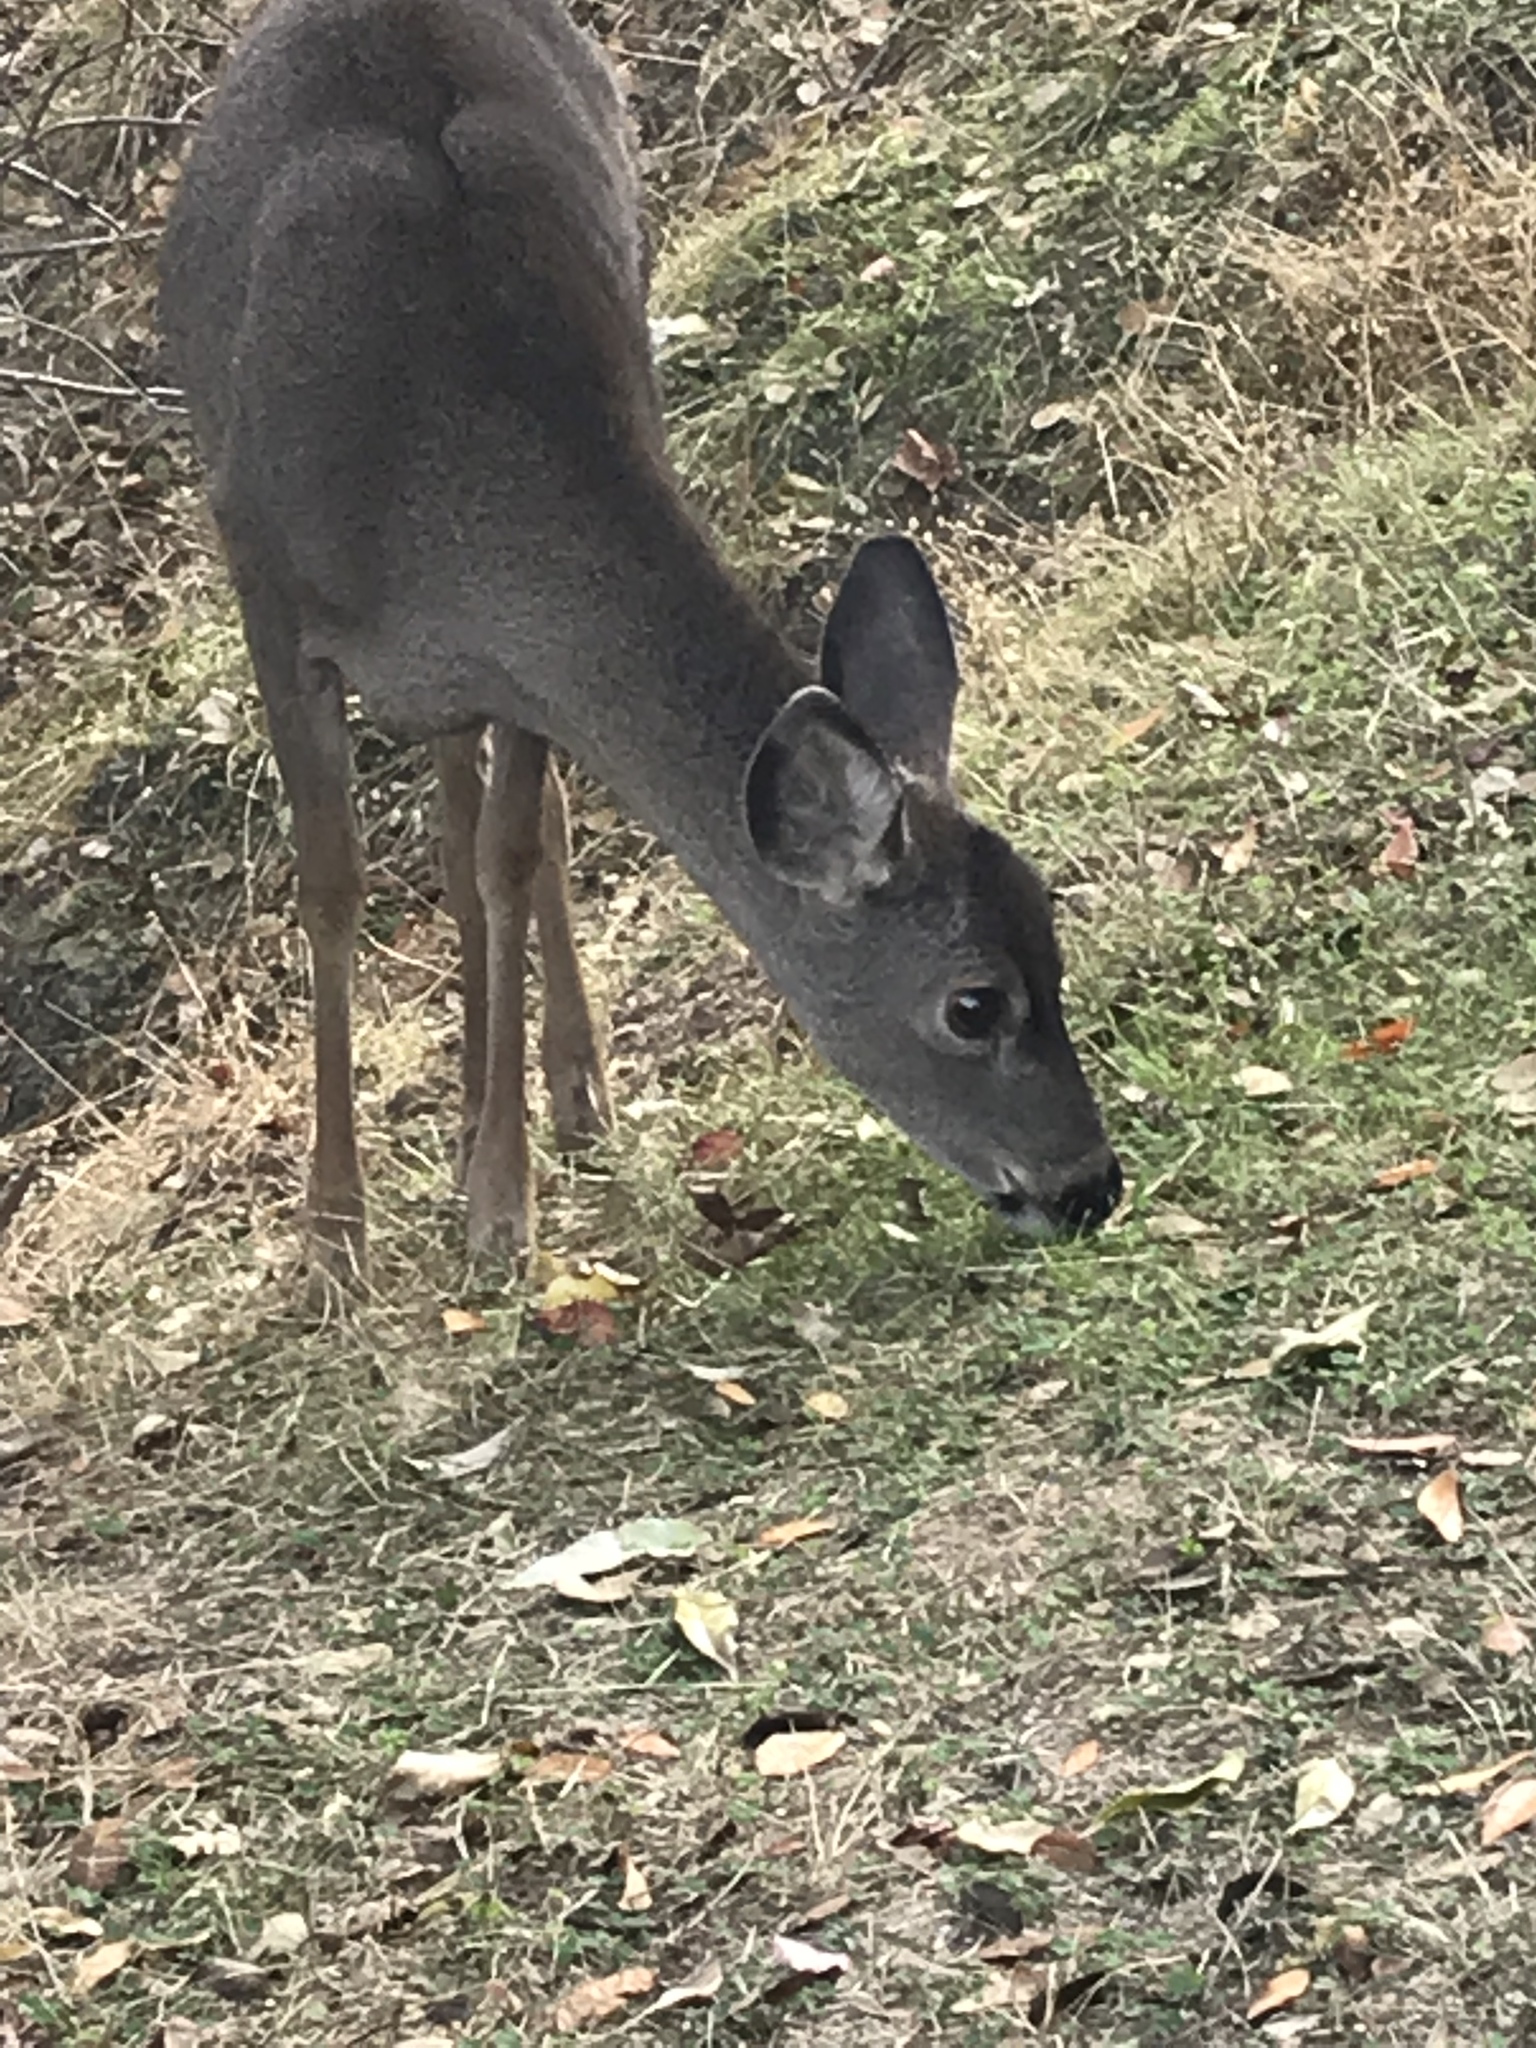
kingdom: Animalia
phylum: Chordata
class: Mammalia
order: Artiodactyla
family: Cervidae
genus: Odocoileus
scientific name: Odocoileus hemionus
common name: Mule deer
